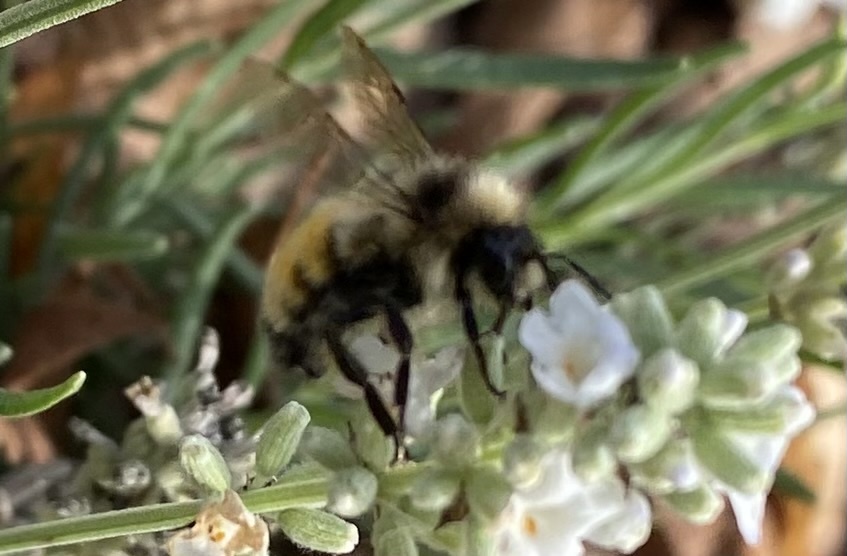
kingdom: Animalia
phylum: Arthropoda
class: Insecta
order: Hymenoptera
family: Apidae
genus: Bombus
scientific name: Bombus ternarius
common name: Tri-colored bumble bee
